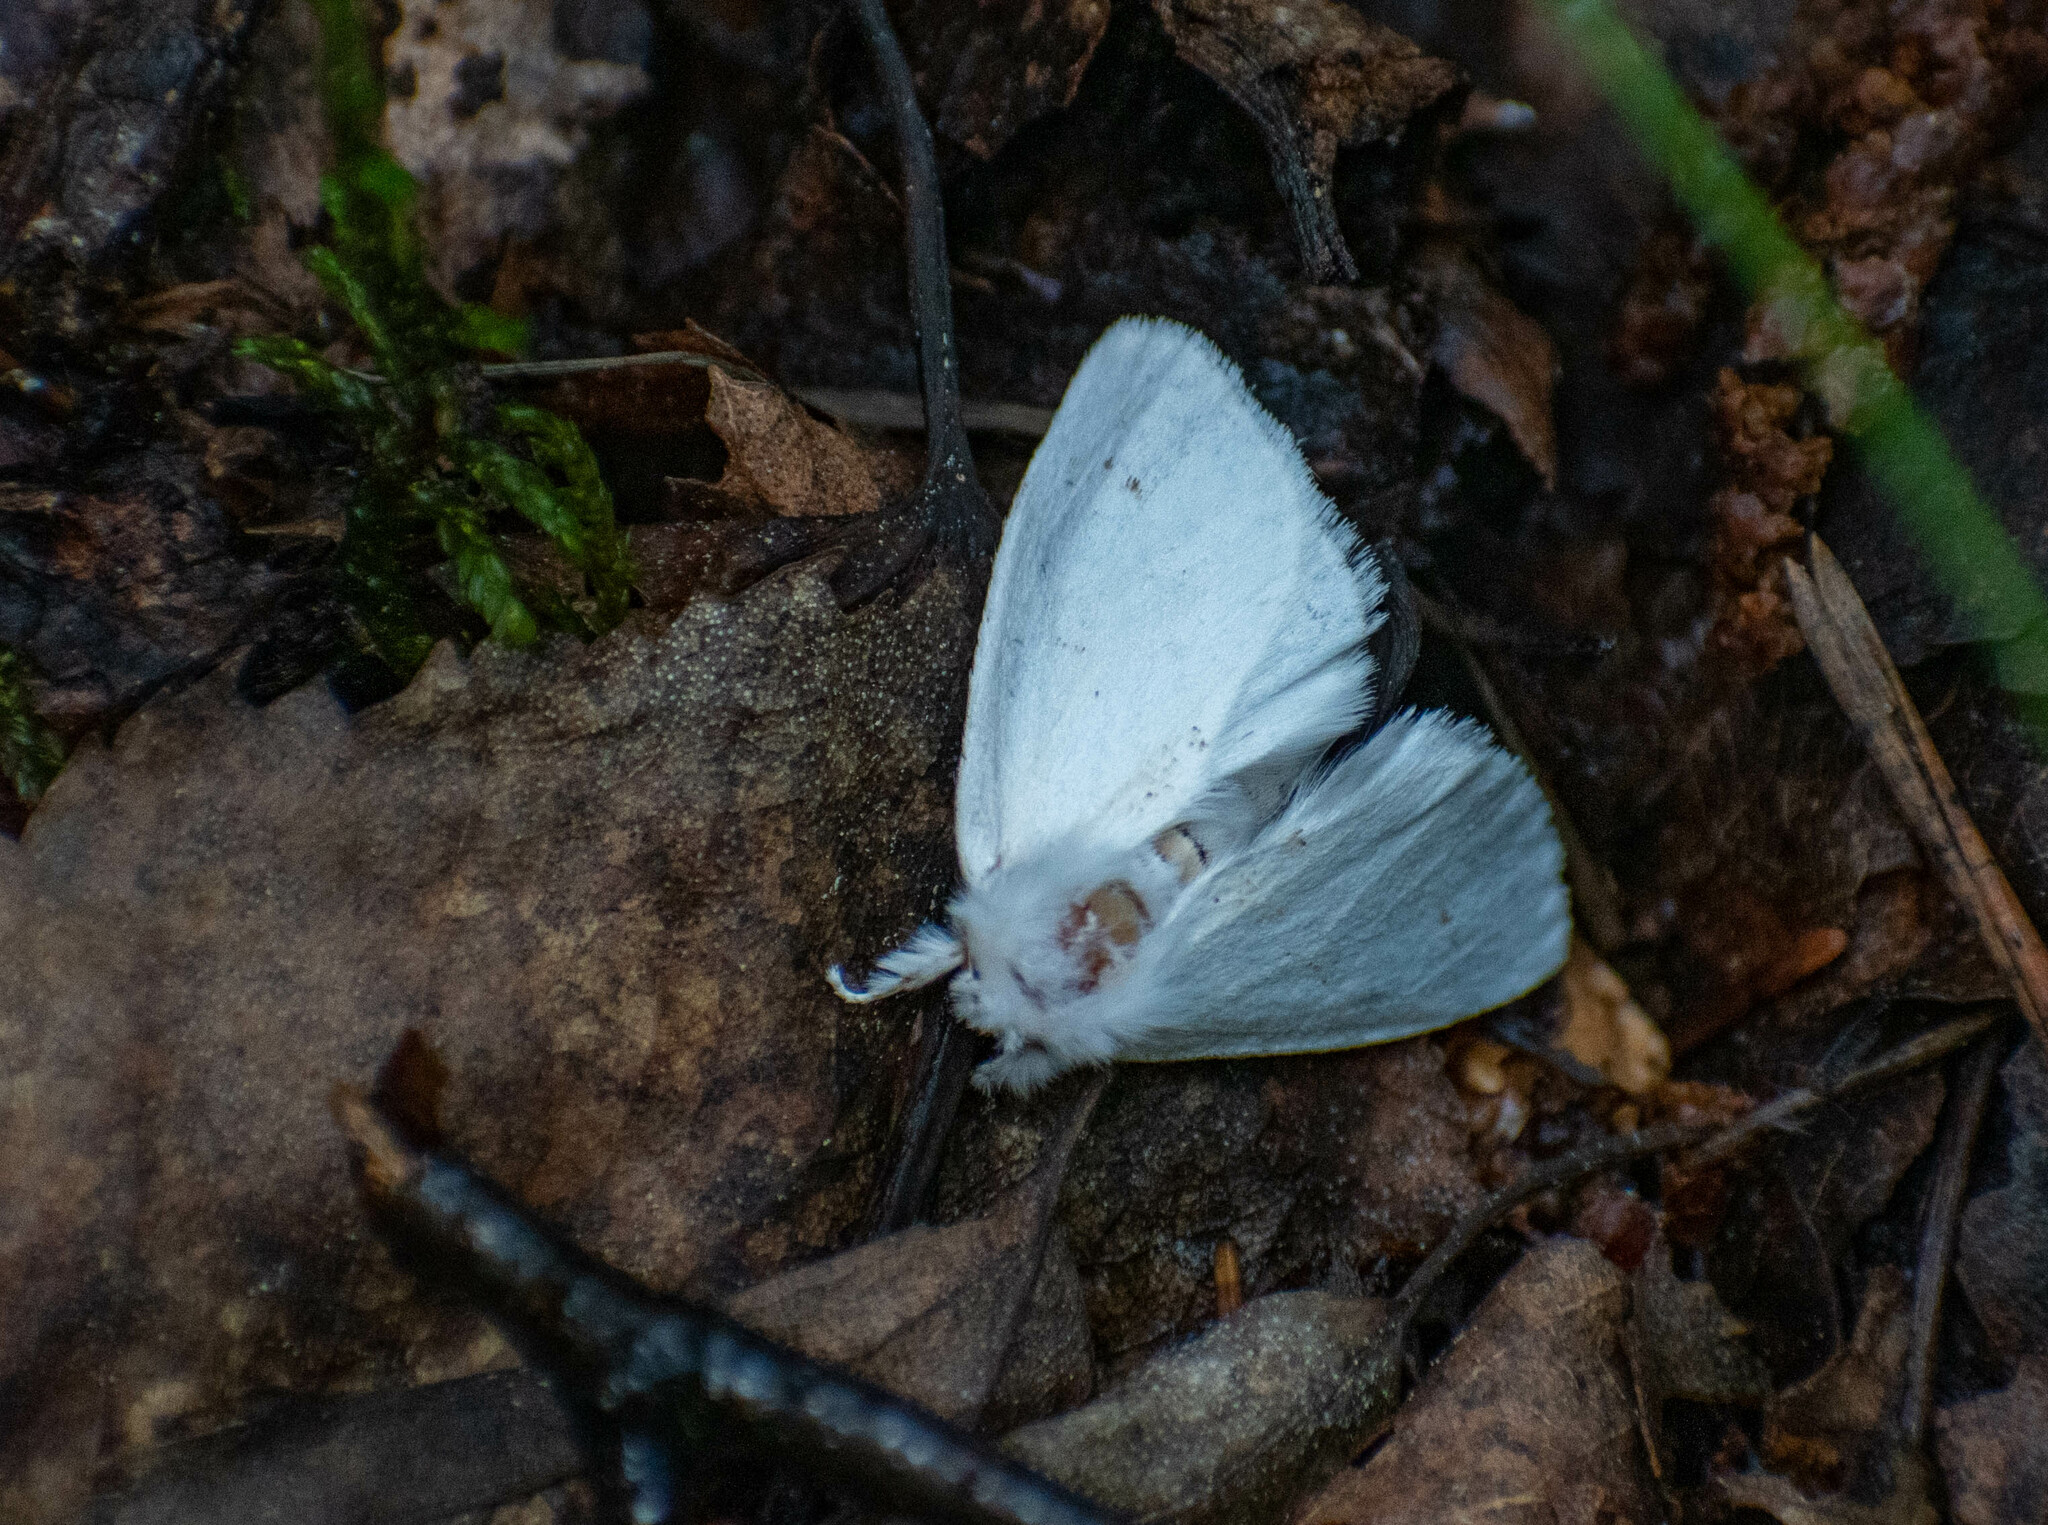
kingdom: Animalia
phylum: Arthropoda
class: Insecta
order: Lepidoptera
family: Notodontidae
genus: Leucodonta
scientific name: Leucodonta bicoloria
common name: White prominent
